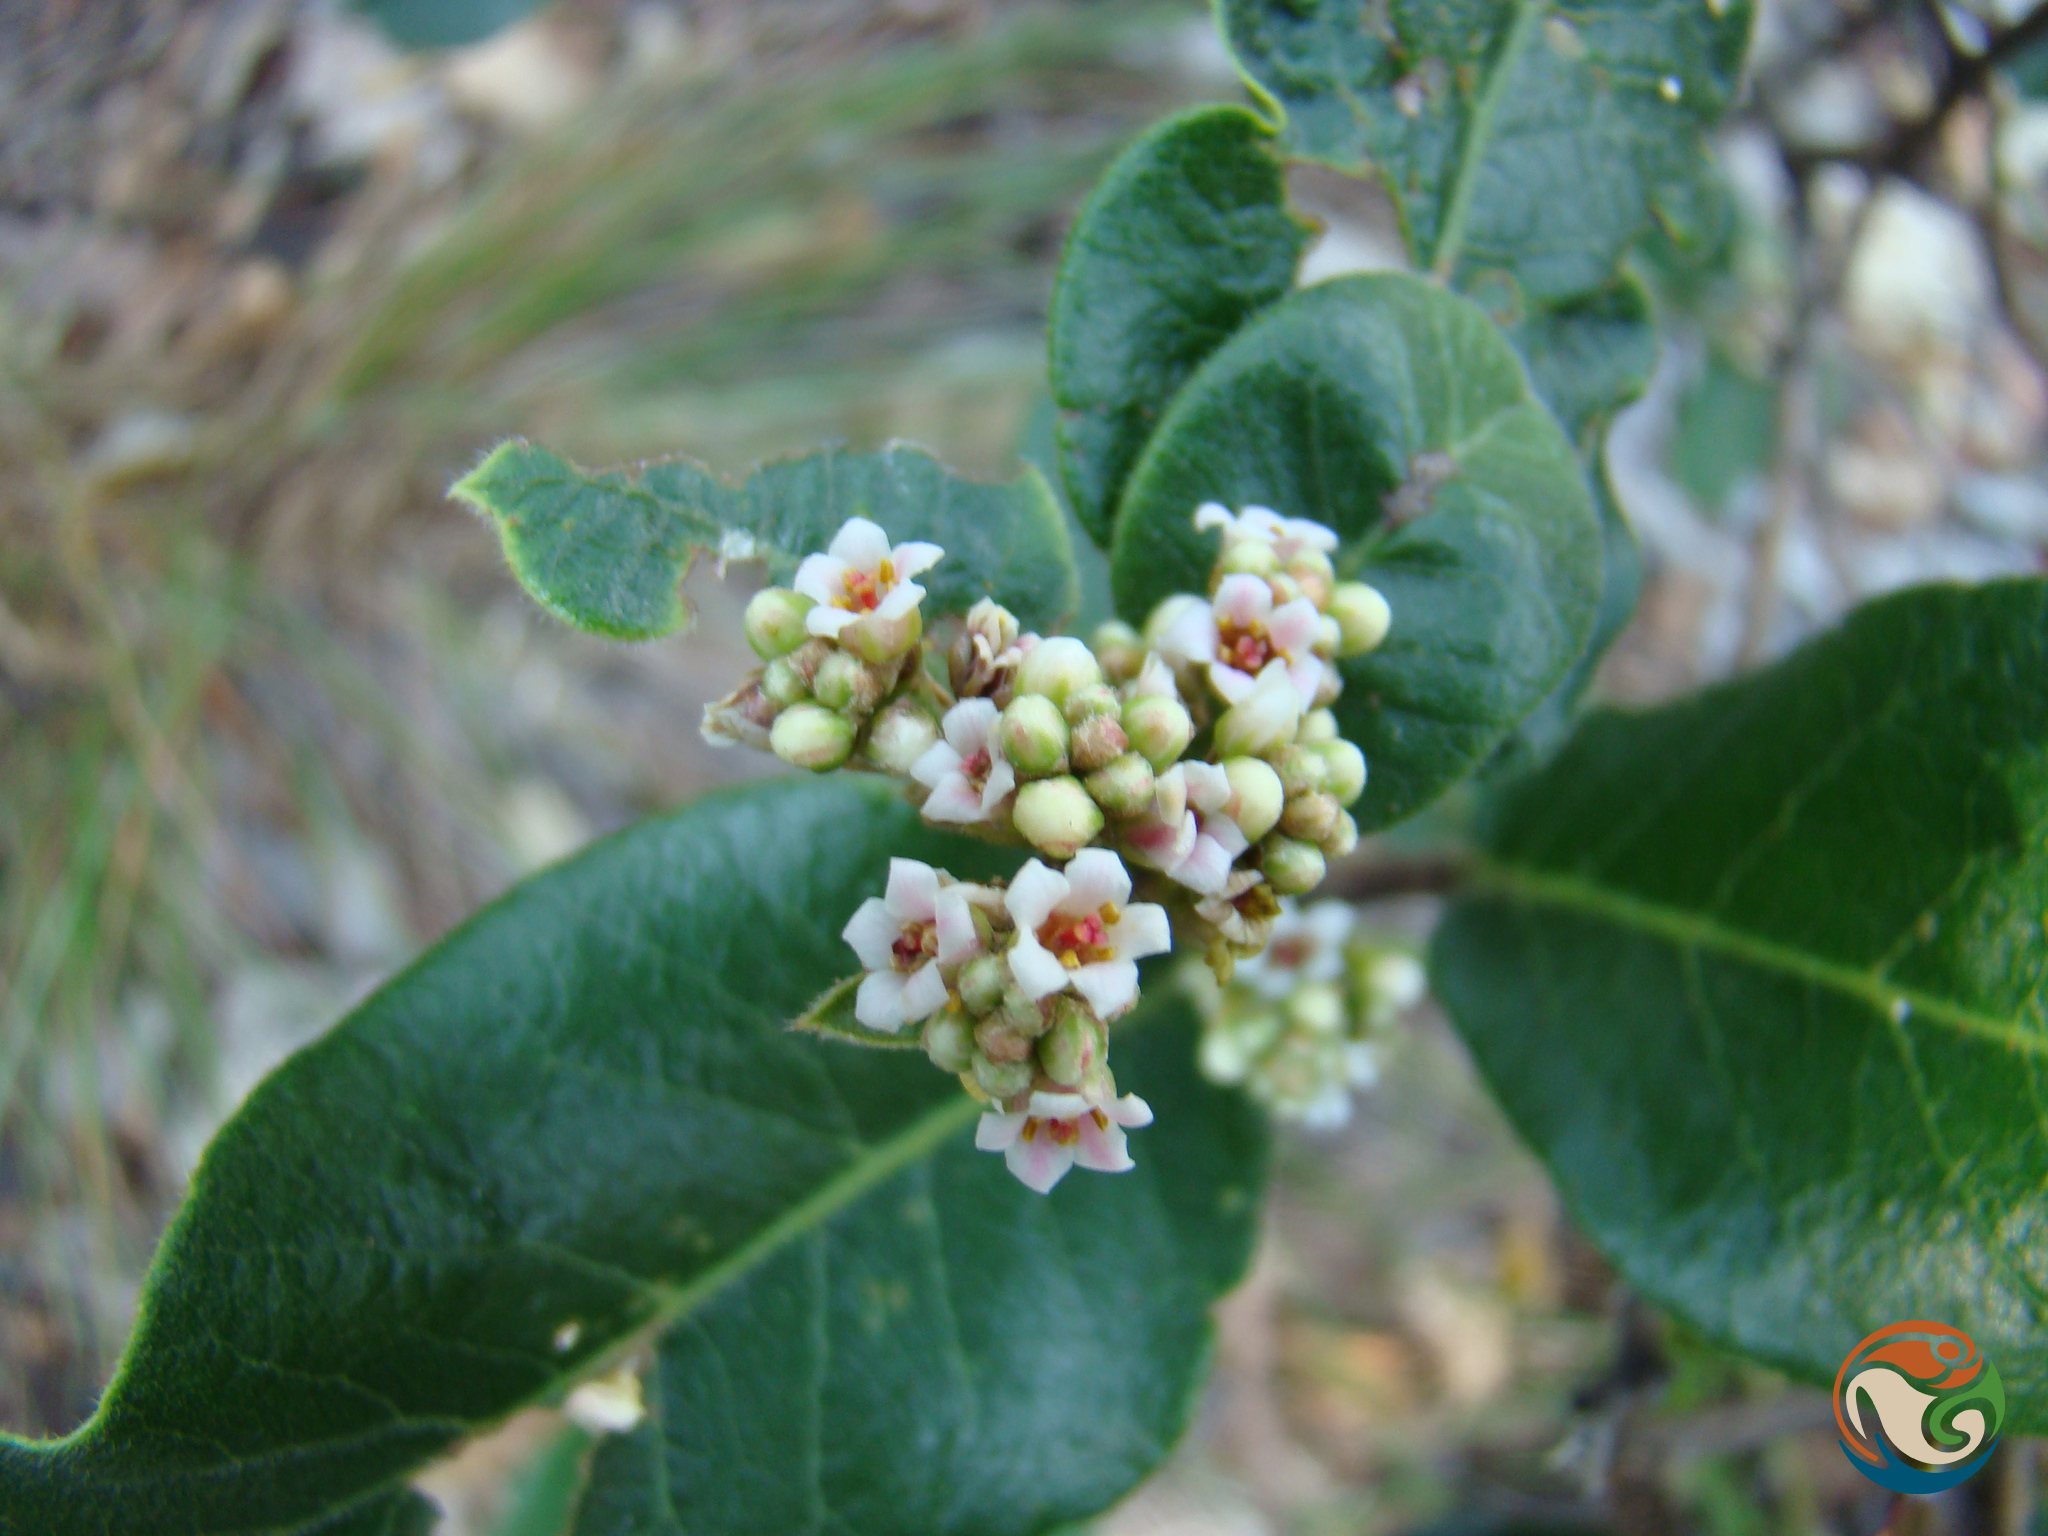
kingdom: Plantae
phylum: Tracheophyta
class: Magnoliopsida
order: Sapindales
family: Anacardiaceae
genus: Rhus
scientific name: Rhus standleyi
